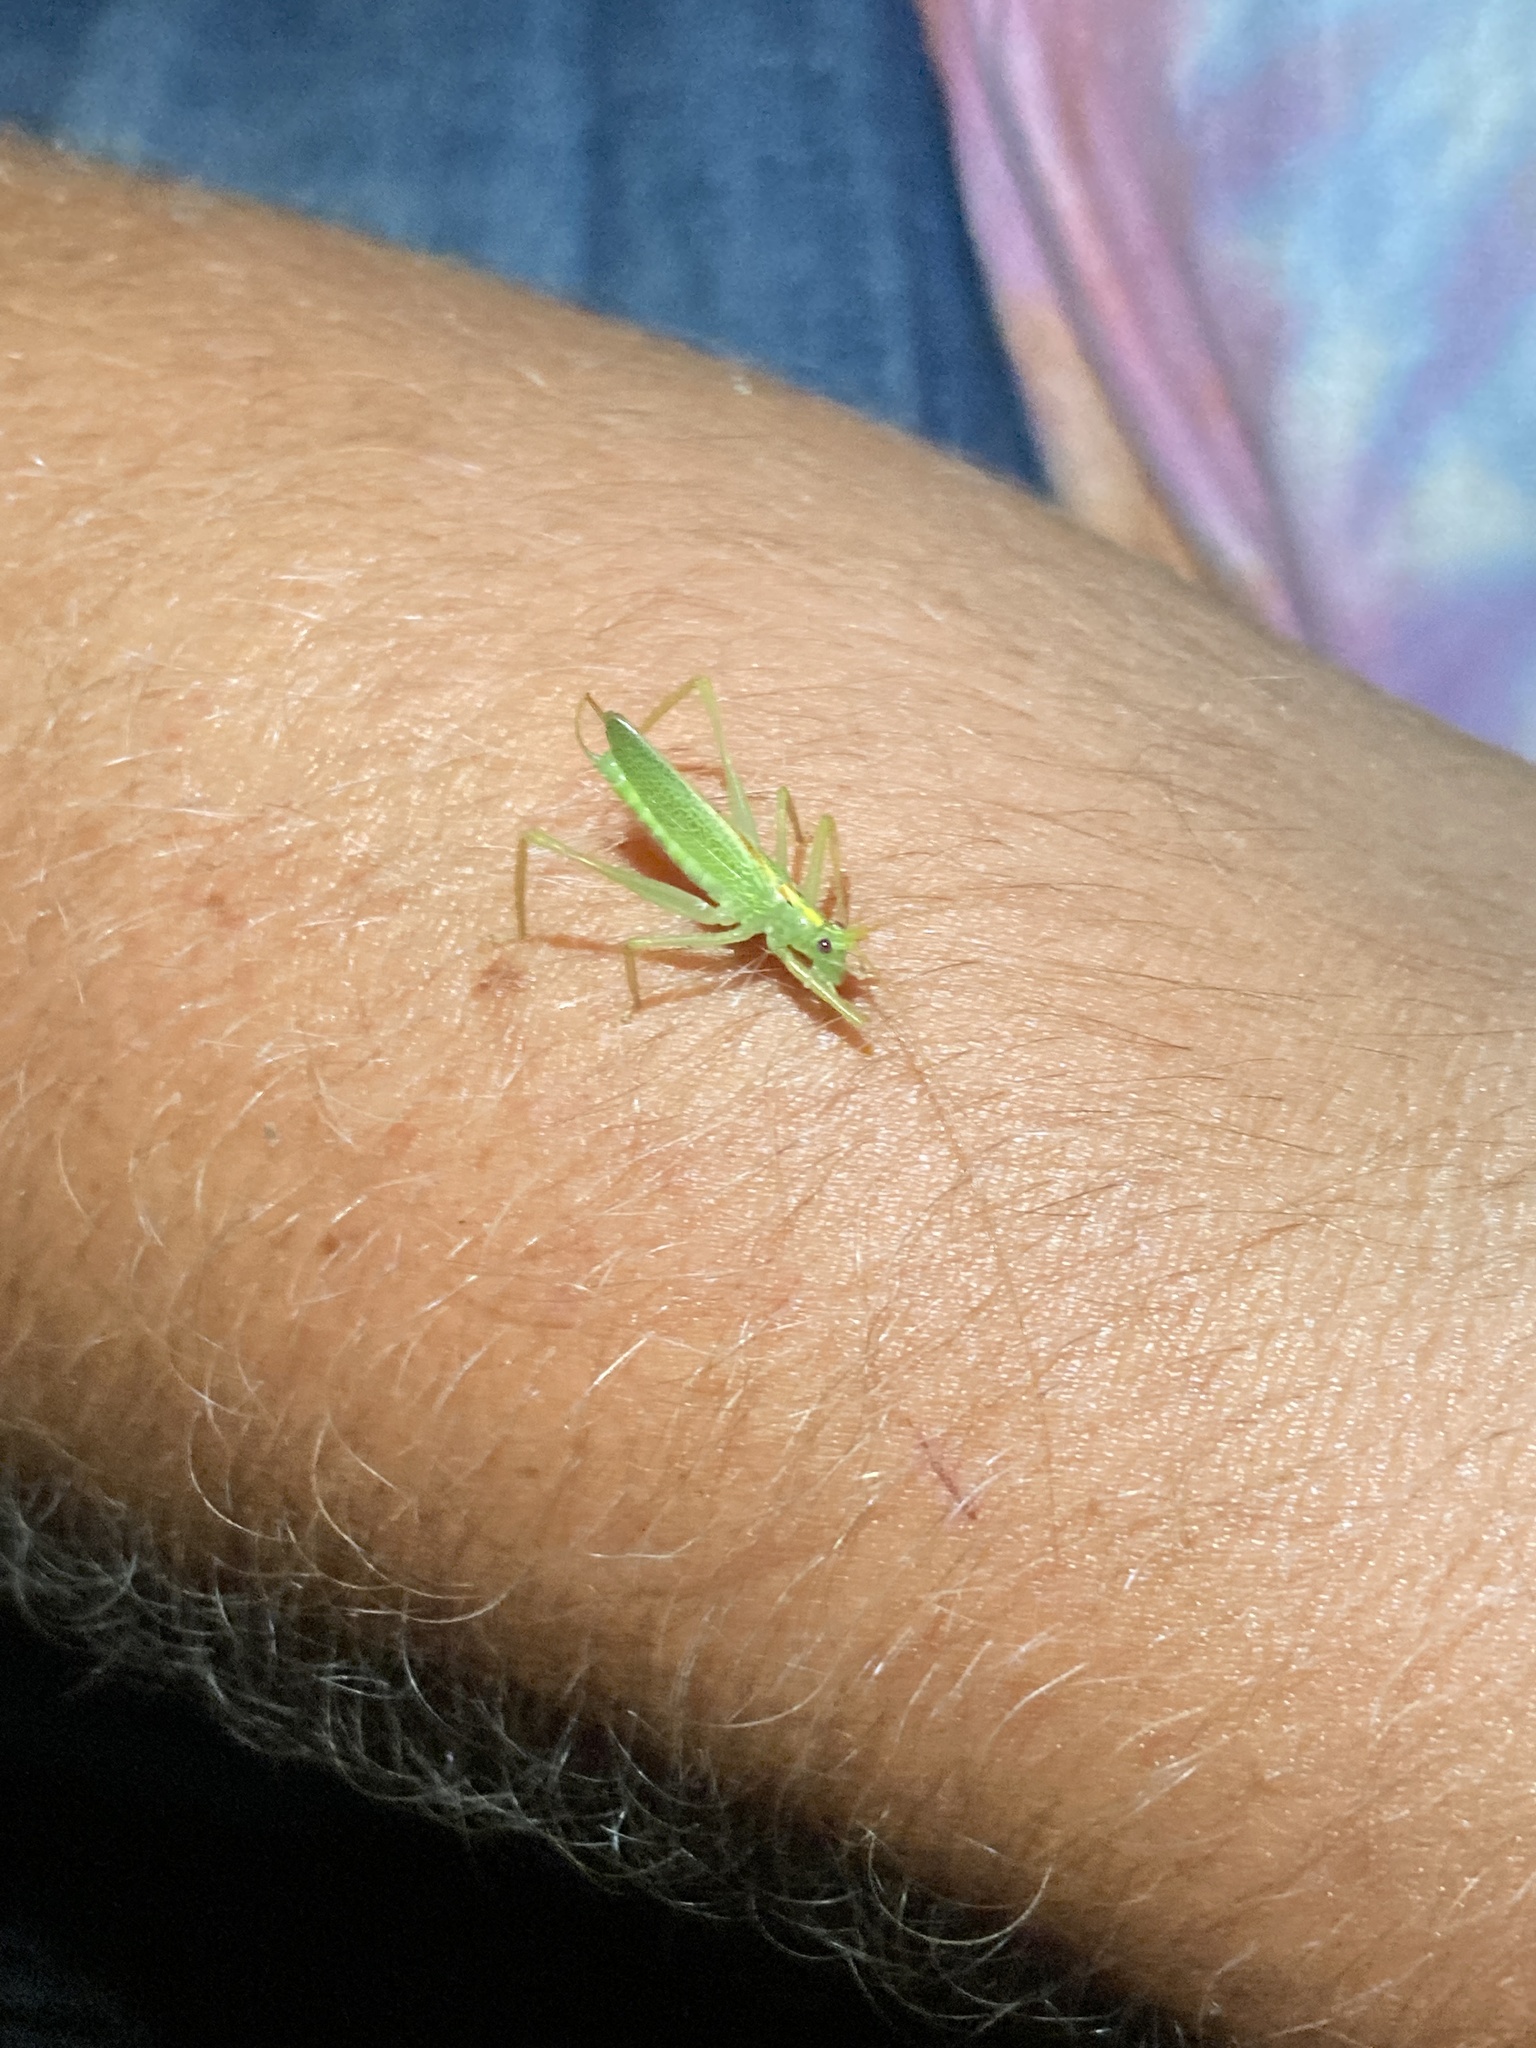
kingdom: Animalia
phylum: Arthropoda
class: Insecta
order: Orthoptera
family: Tettigoniidae
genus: Meconema
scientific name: Meconema thalassinum
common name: Oak bush-cricket
